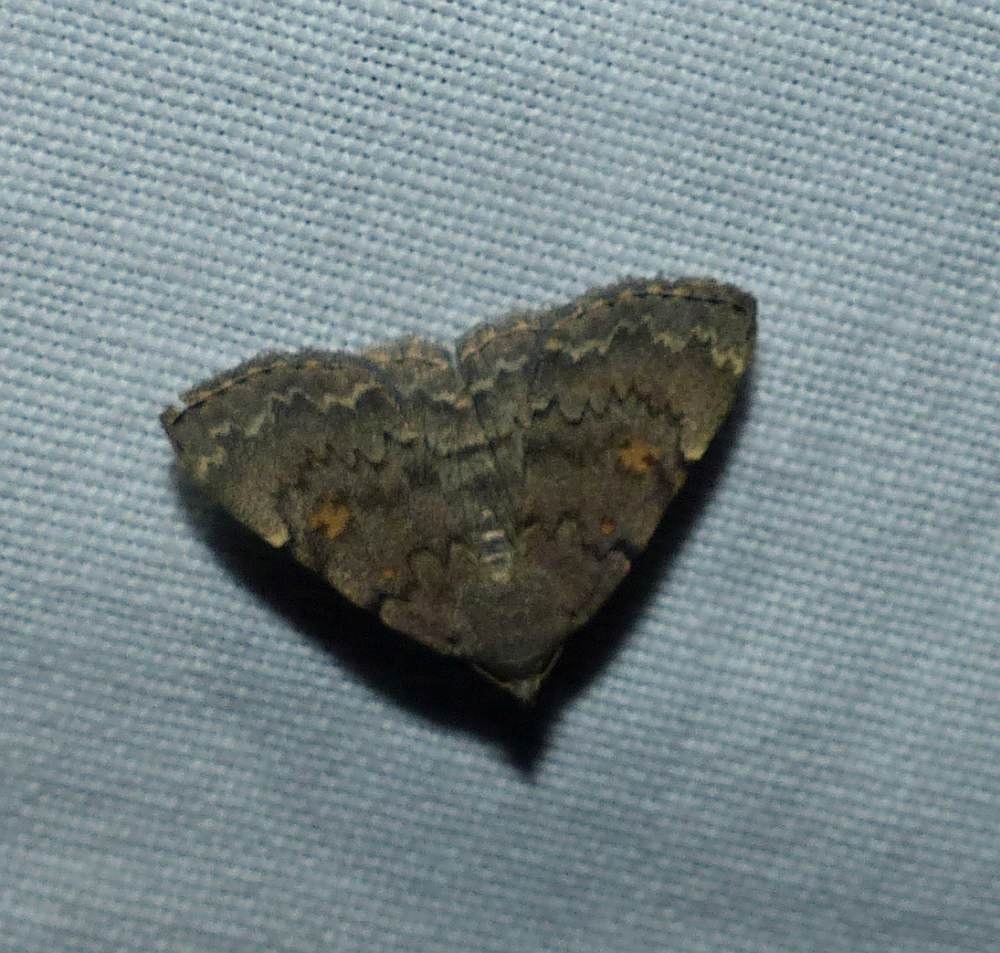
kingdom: Animalia
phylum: Arthropoda
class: Insecta
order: Lepidoptera
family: Erebidae
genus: Idia
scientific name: Idia aemula
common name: Common idia moth
